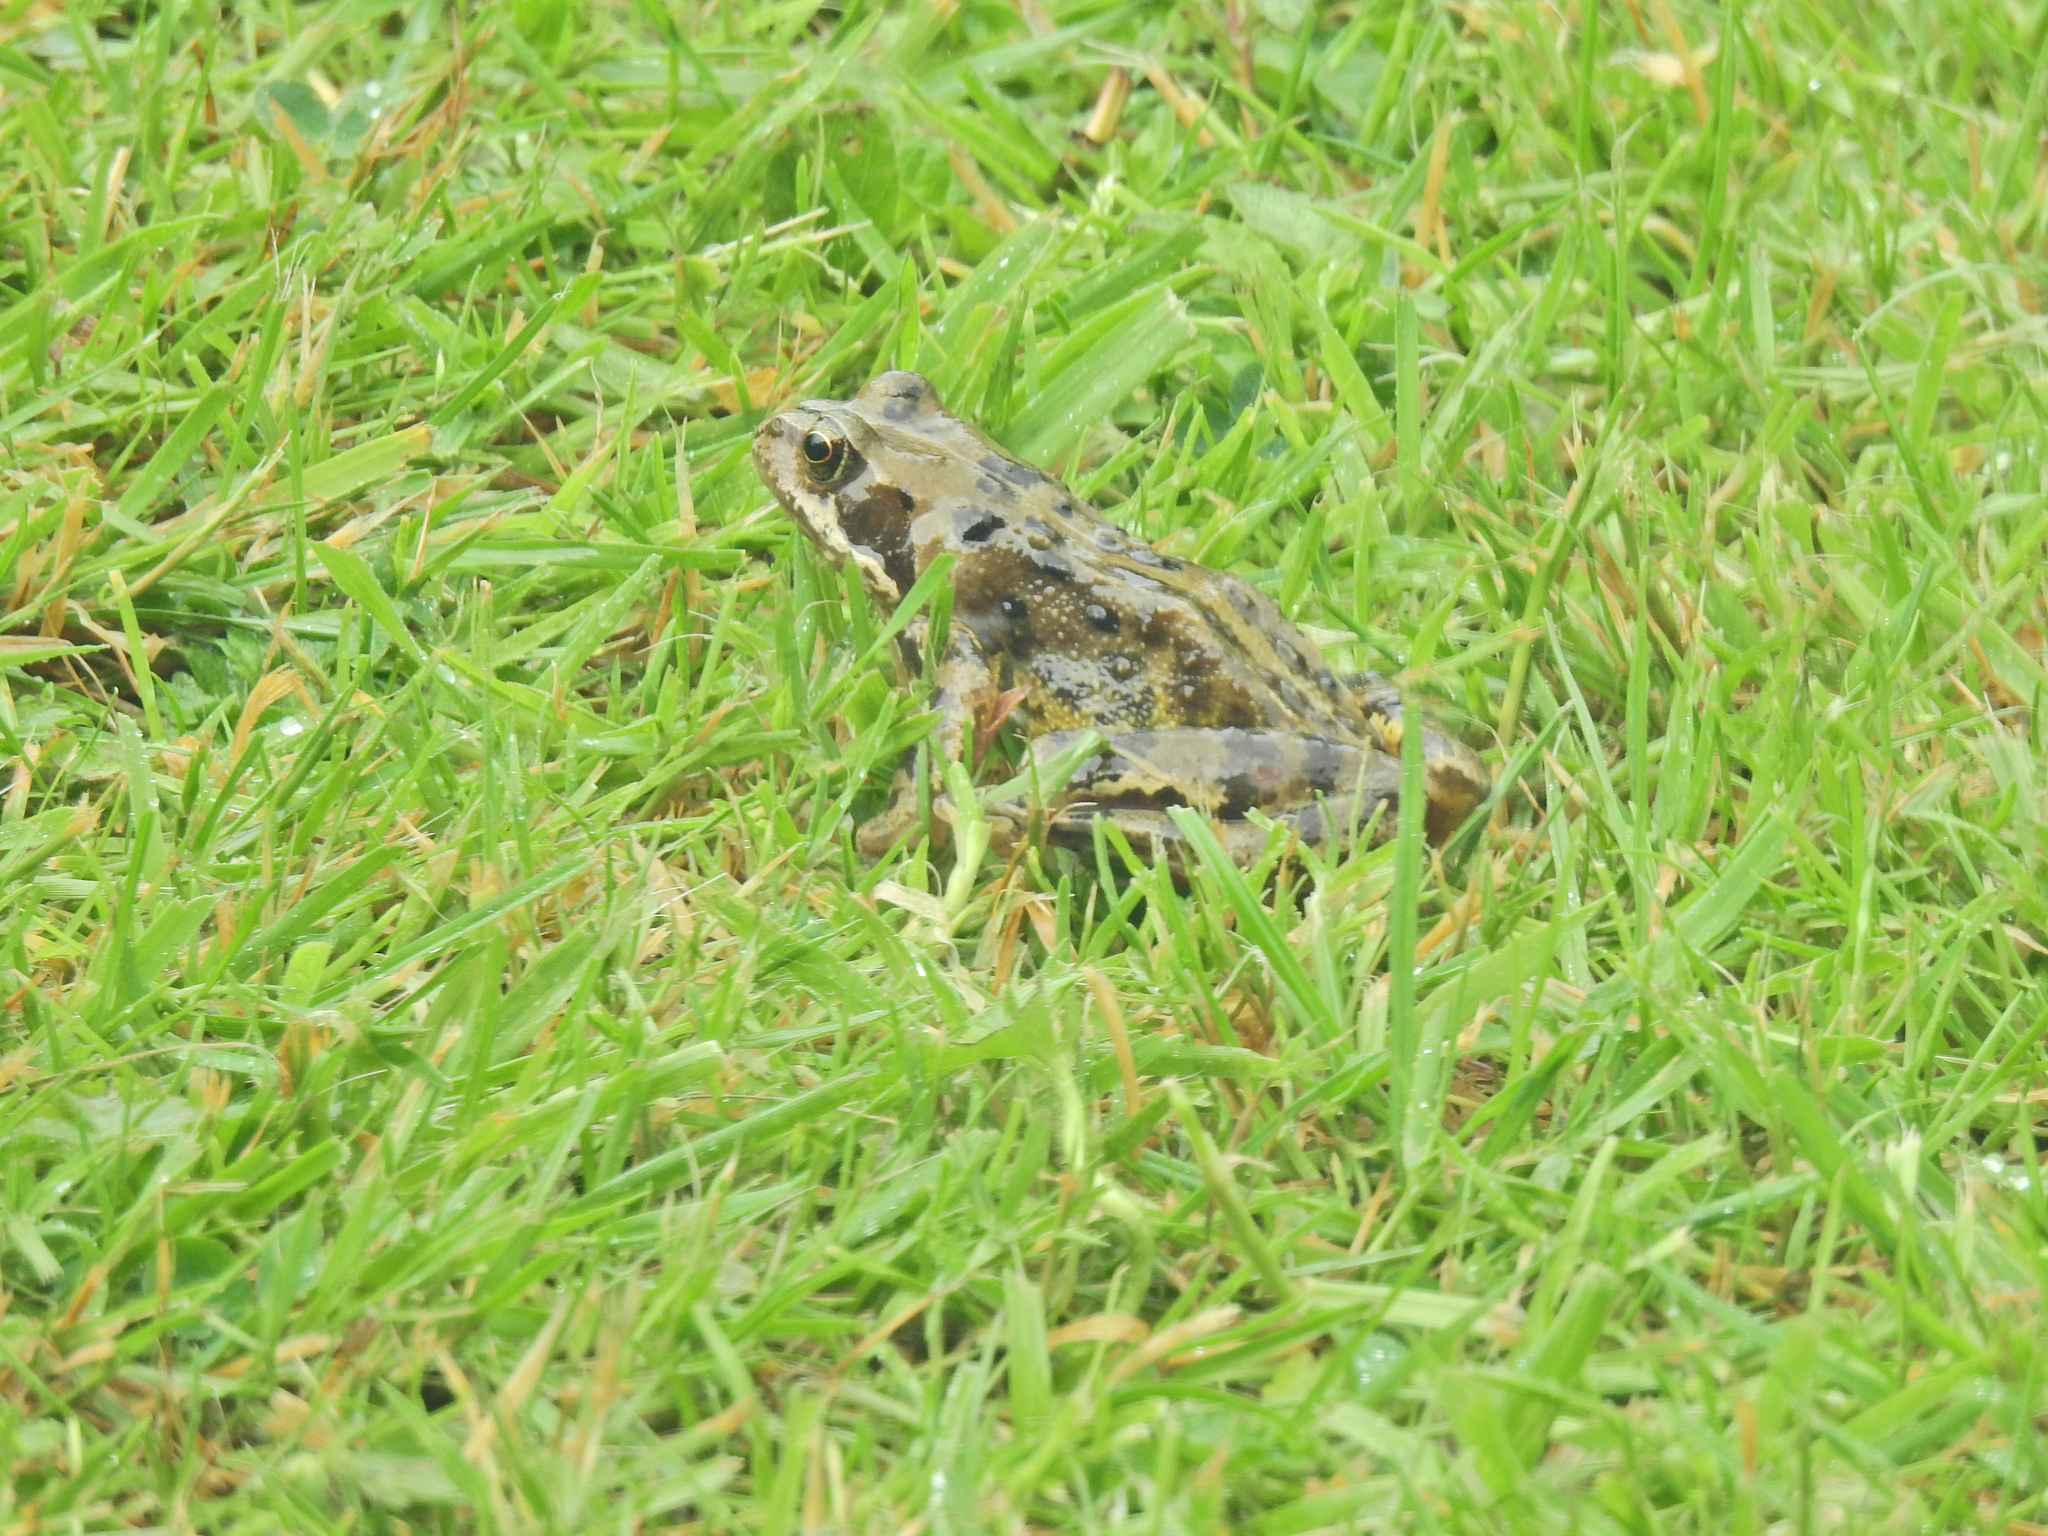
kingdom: Animalia
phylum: Chordata
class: Amphibia
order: Anura
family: Ranidae
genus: Rana
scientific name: Rana temporaria
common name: Common frog
